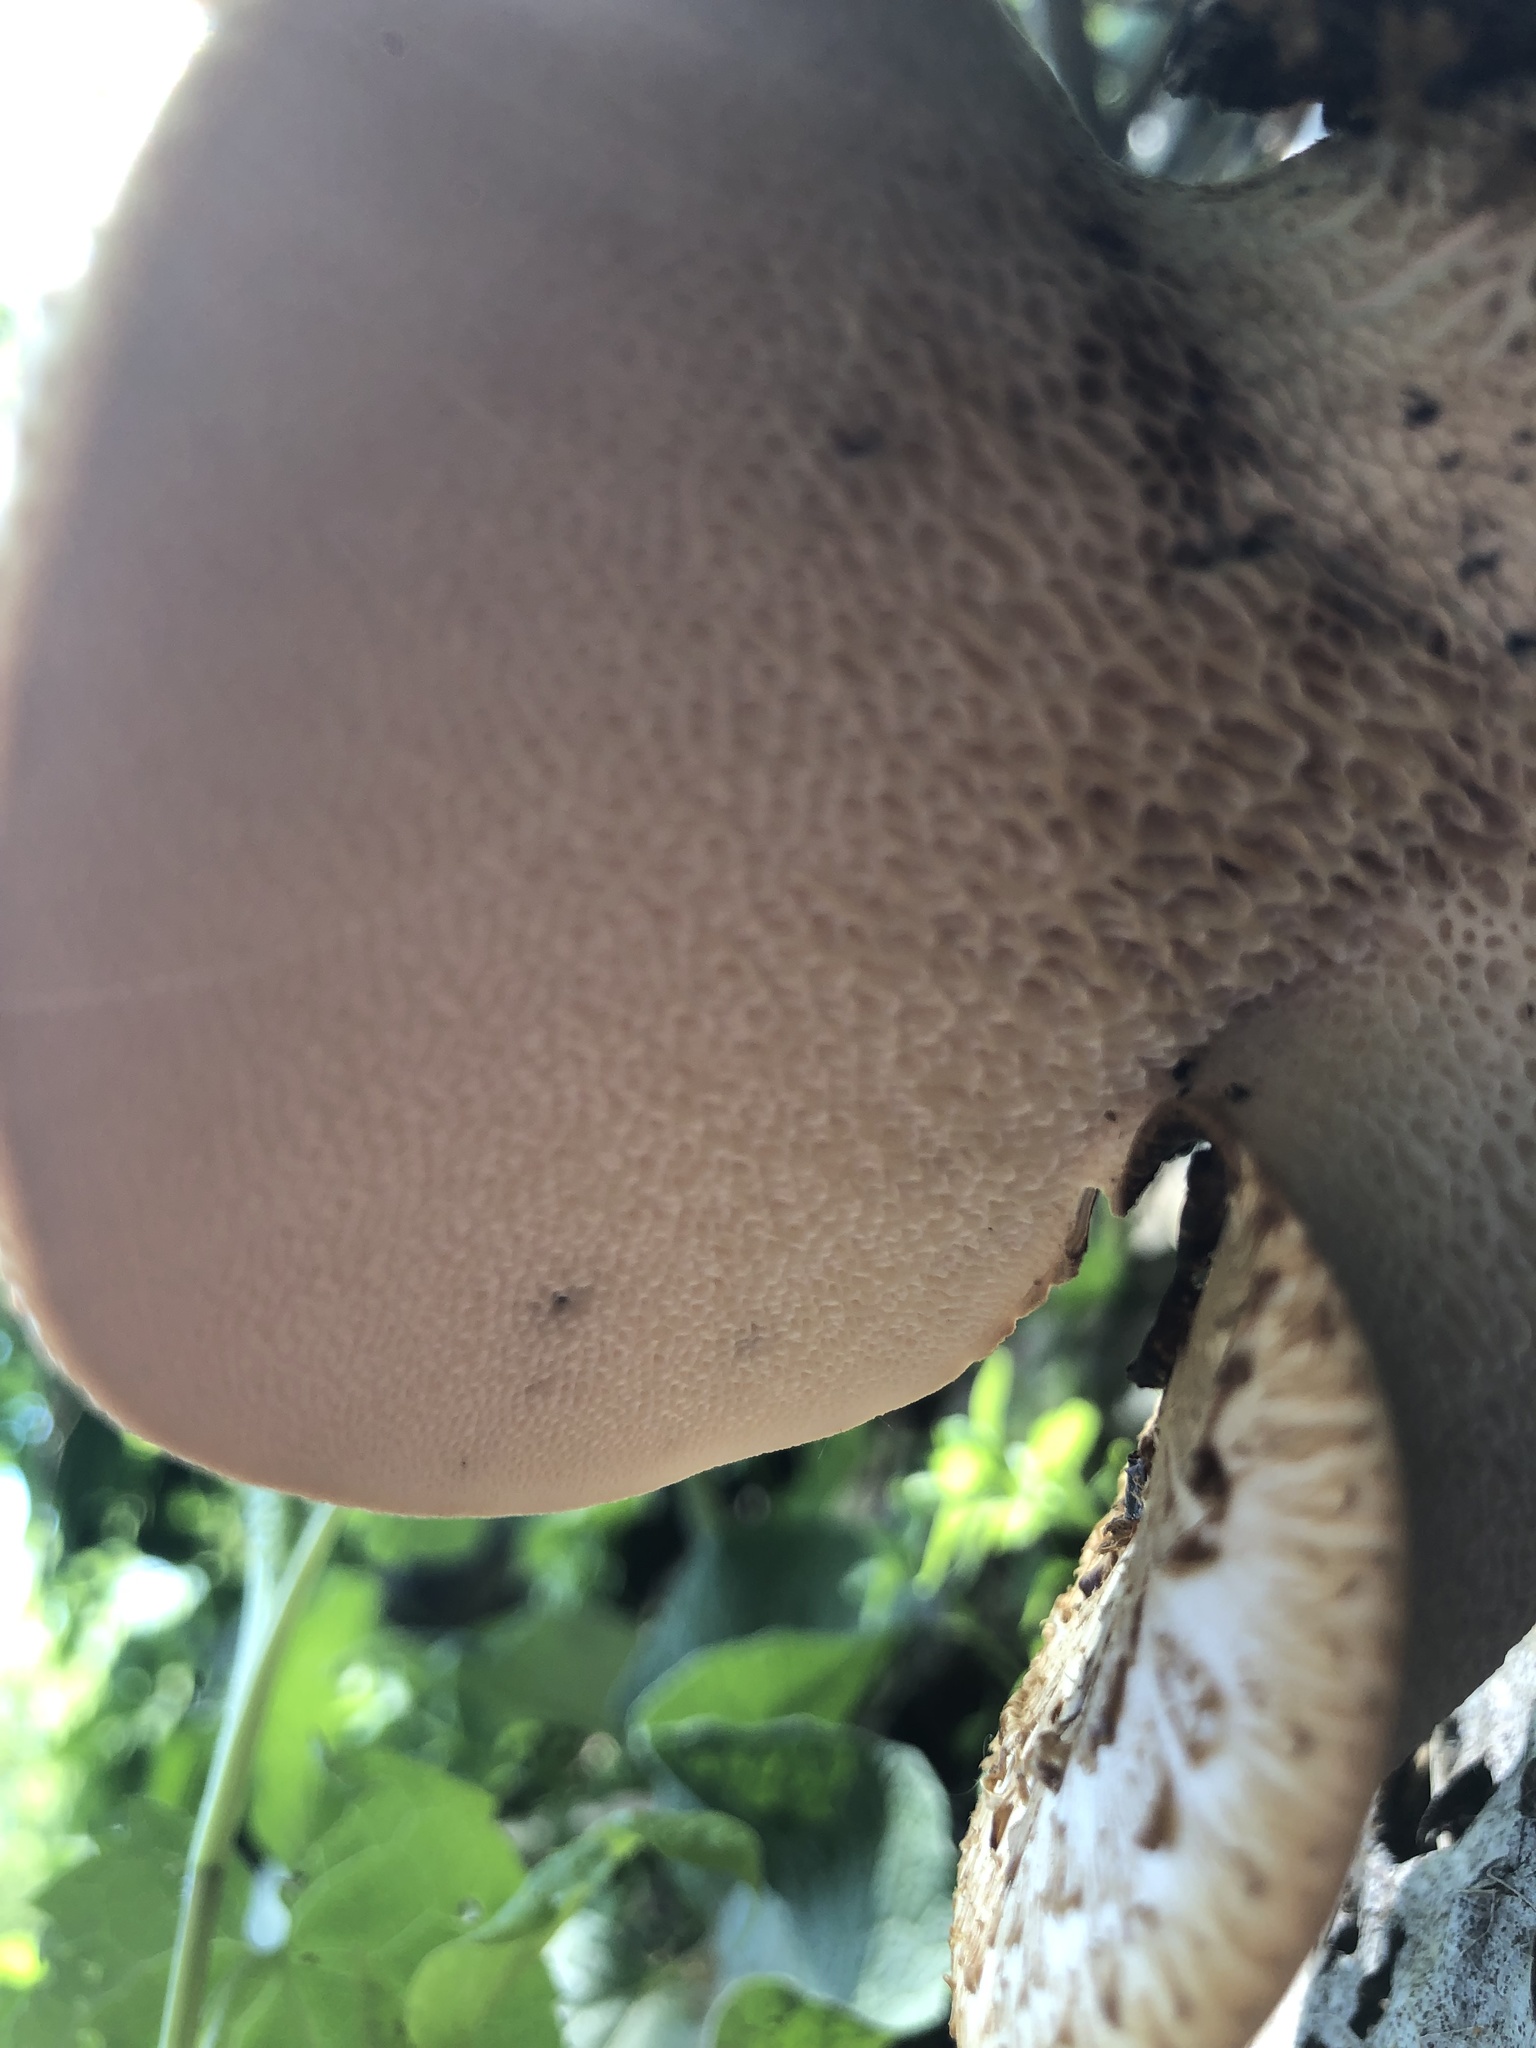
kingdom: Fungi
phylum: Basidiomycota
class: Agaricomycetes
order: Polyporales
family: Polyporaceae
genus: Cerioporus
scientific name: Cerioporus squamosus
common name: Dryad's saddle
